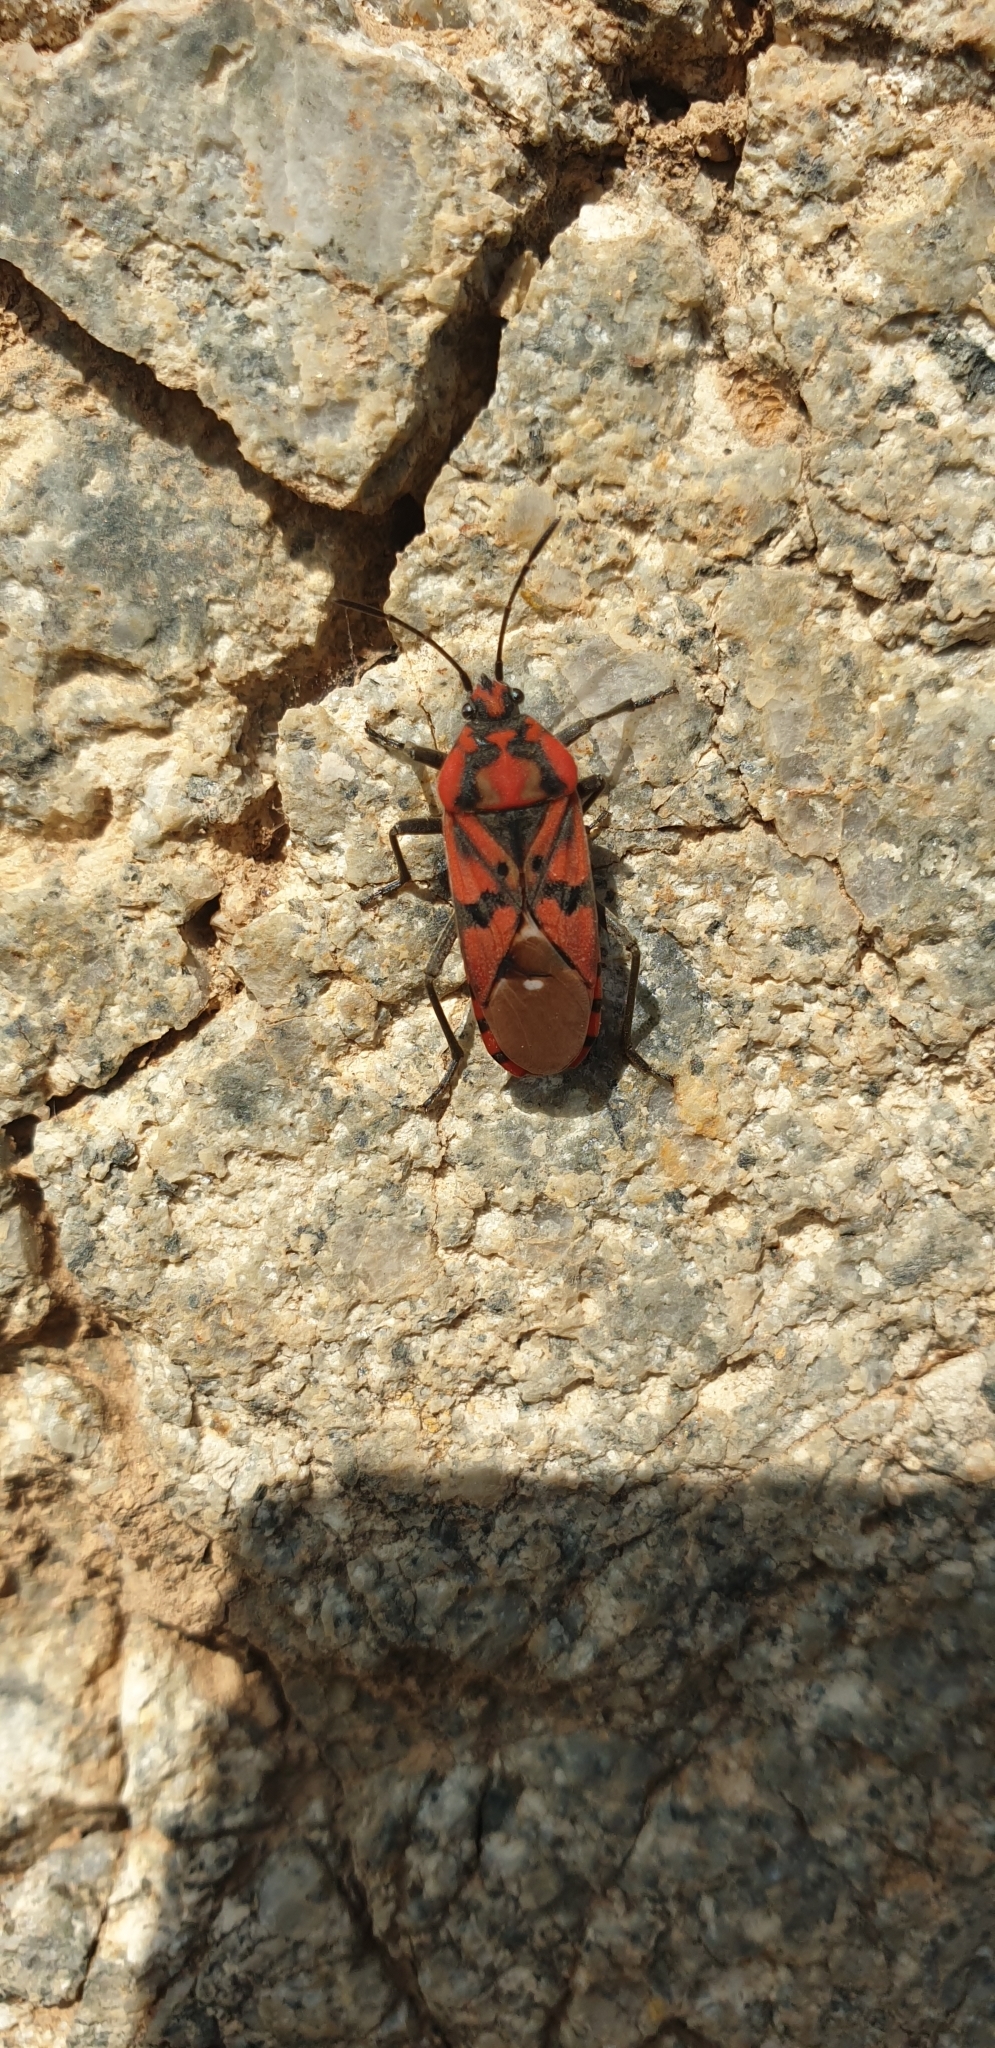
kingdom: Animalia
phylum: Arthropoda
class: Insecta
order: Hemiptera
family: Lygaeidae
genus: Spilostethus
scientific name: Spilostethus pandurus
